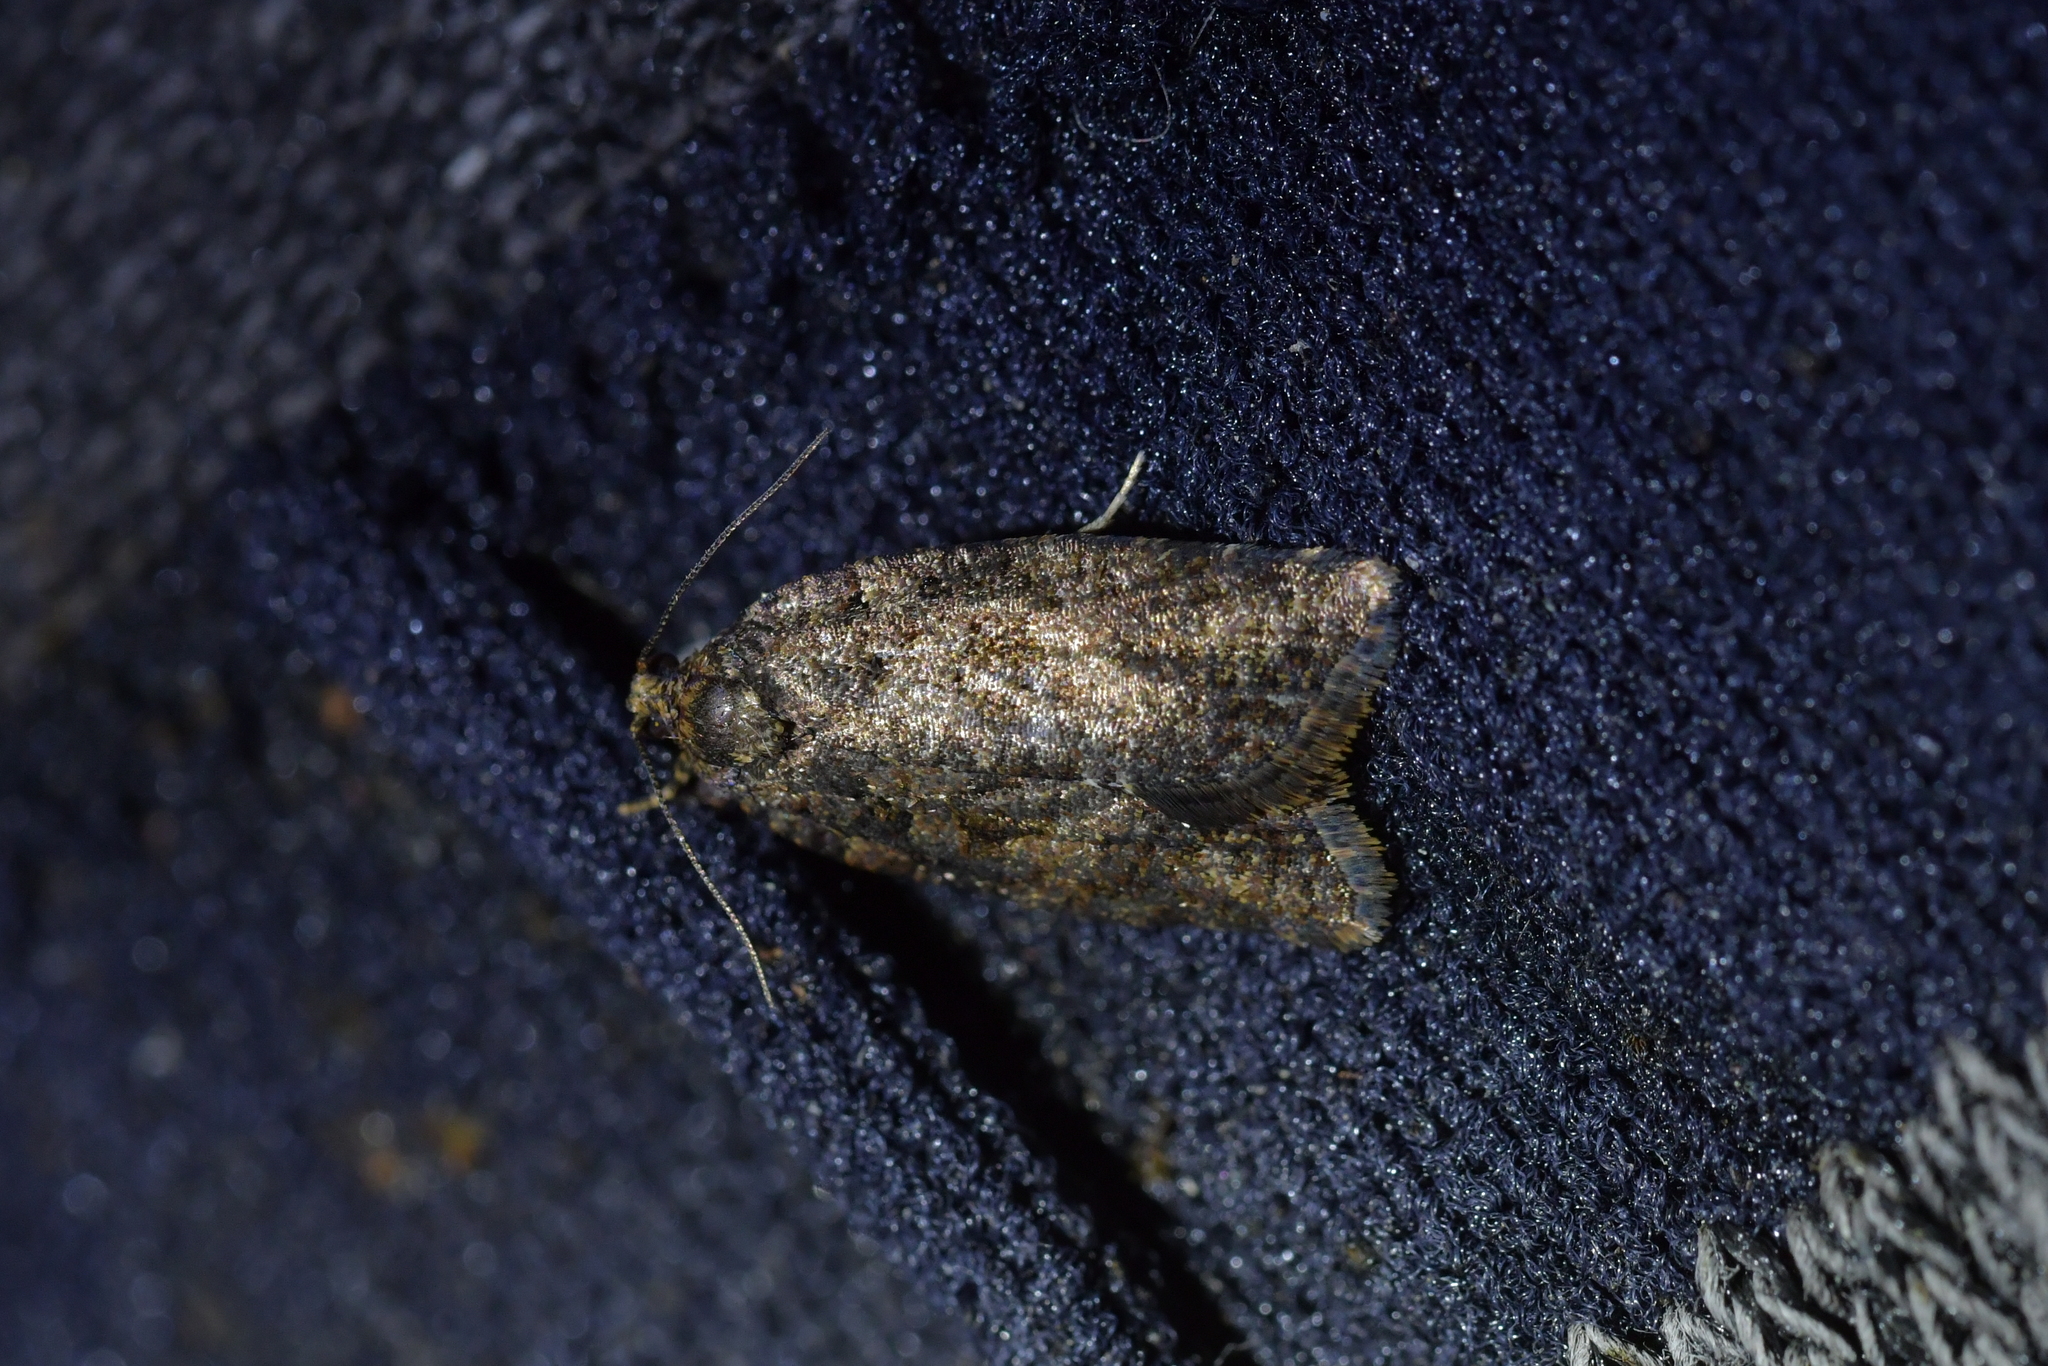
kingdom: Animalia
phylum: Arthropoda
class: Insecta
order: Lepidoptera
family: Tortricidae
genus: Capua
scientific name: Capua intractana
